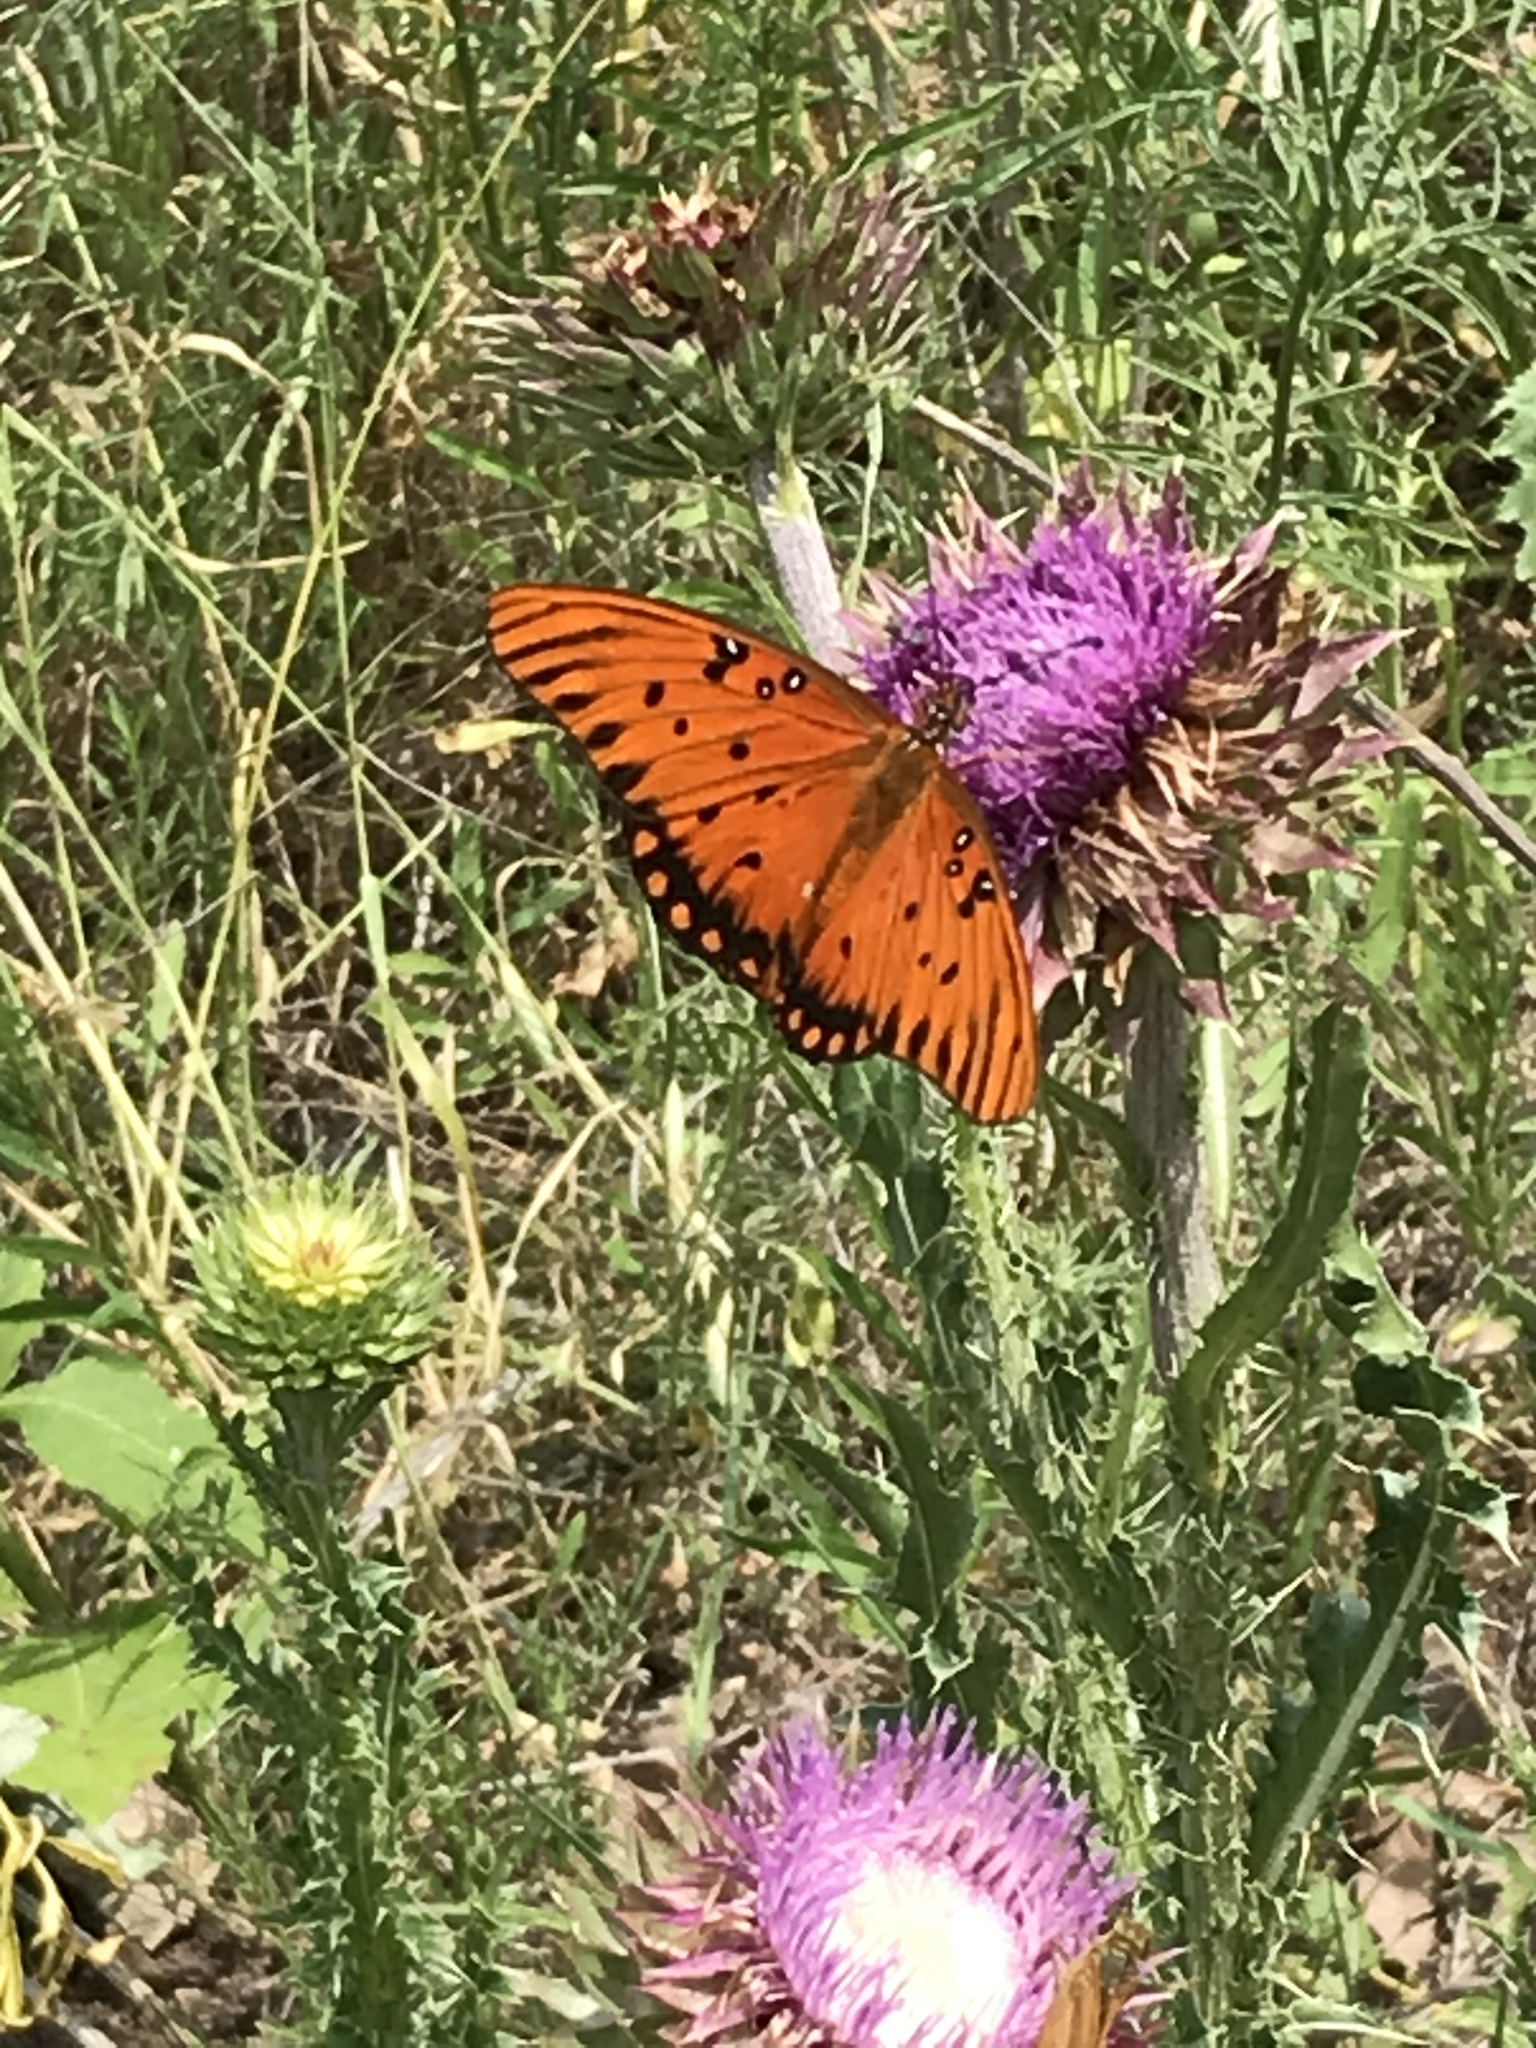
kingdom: Animalia
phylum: Arthropoda
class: Insecta
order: Lepidoptera
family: Nymphalidae
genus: Dione
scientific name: Dione vanillae
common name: Gulf fritillary
